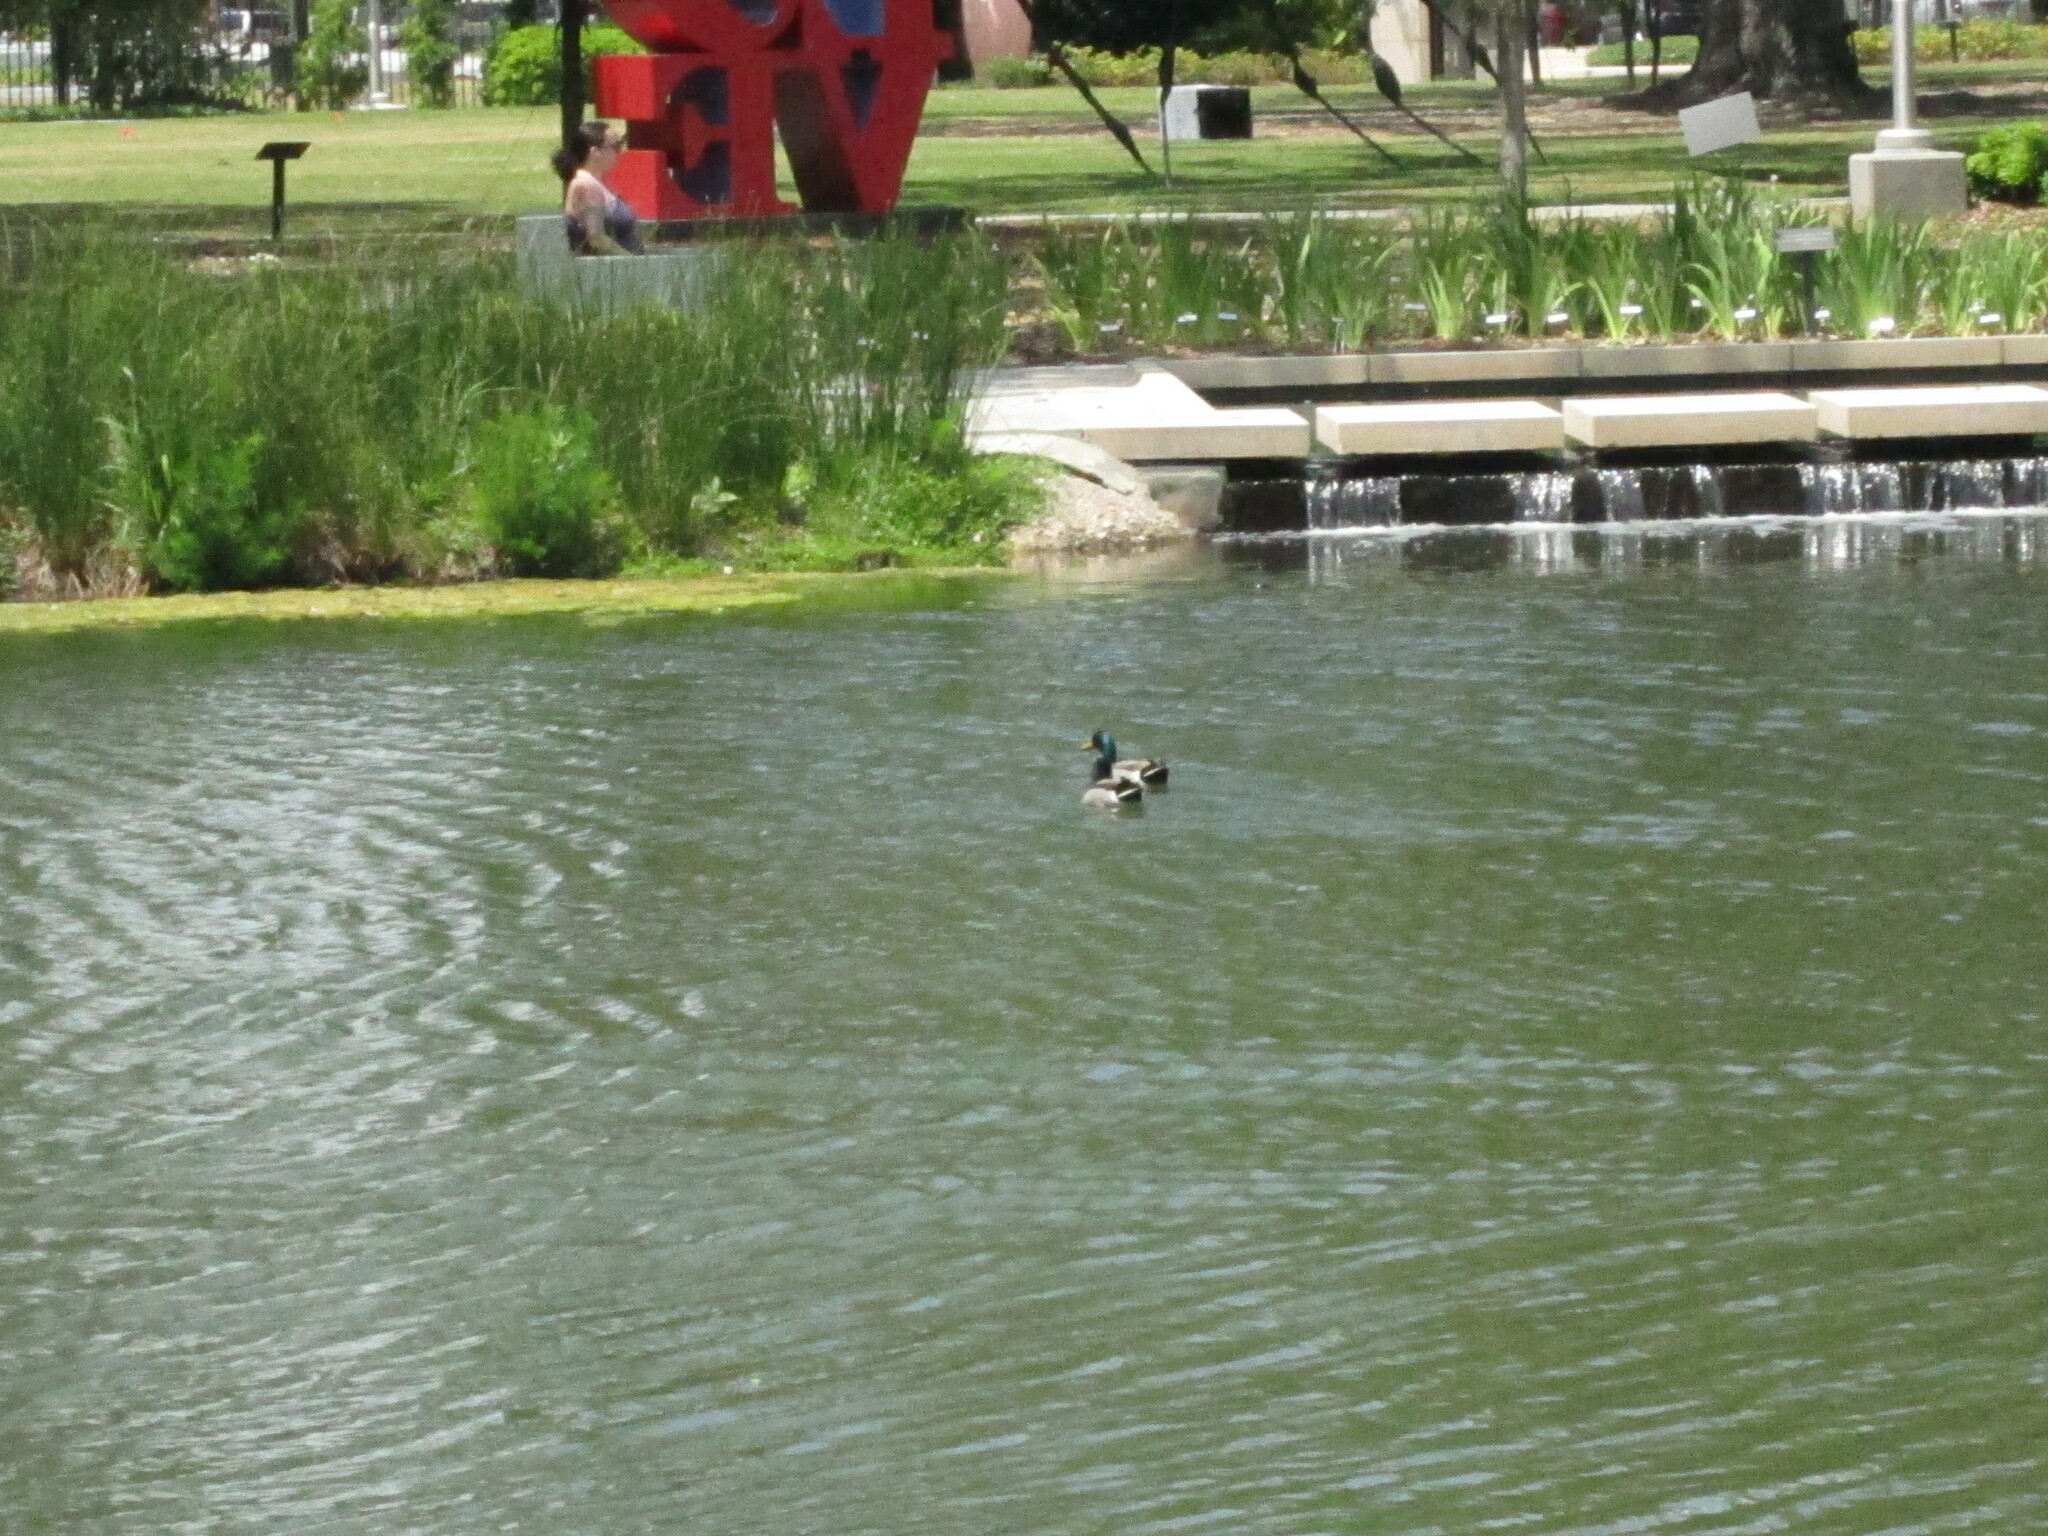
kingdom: Animalia
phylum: Chordata
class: Aves
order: Anseriformes
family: Anatidae
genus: Anas
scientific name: Anas platyrhynchos
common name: Mallard
